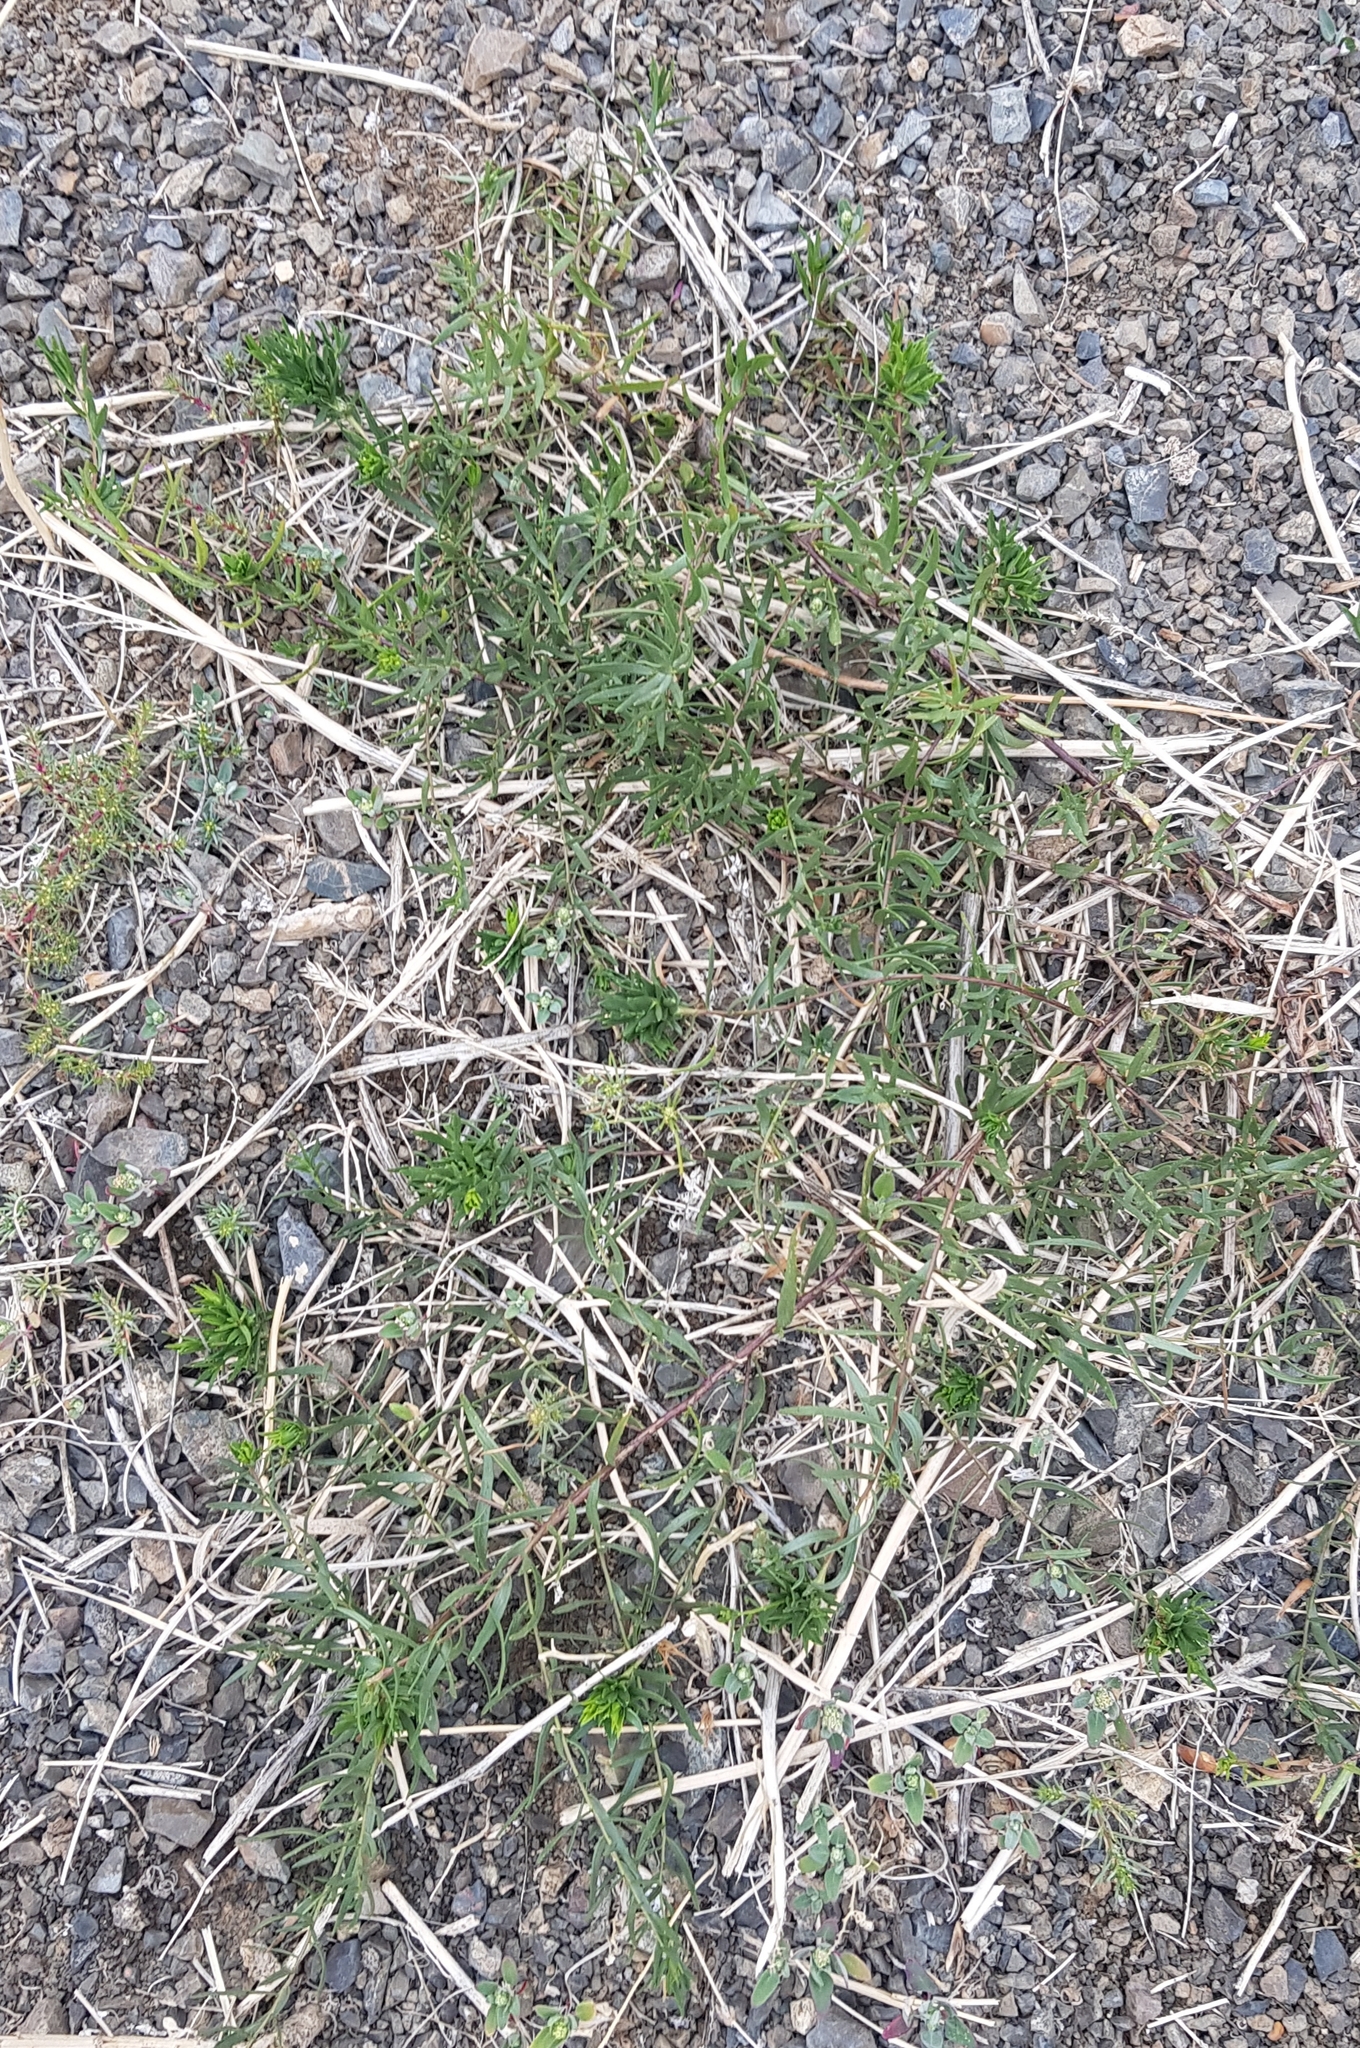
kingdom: Plantae
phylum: Tracheophyta
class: Magnoliopsida
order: Gentianales
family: Apocynaceae
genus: Cynanchum
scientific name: Cynanchum thesioides
